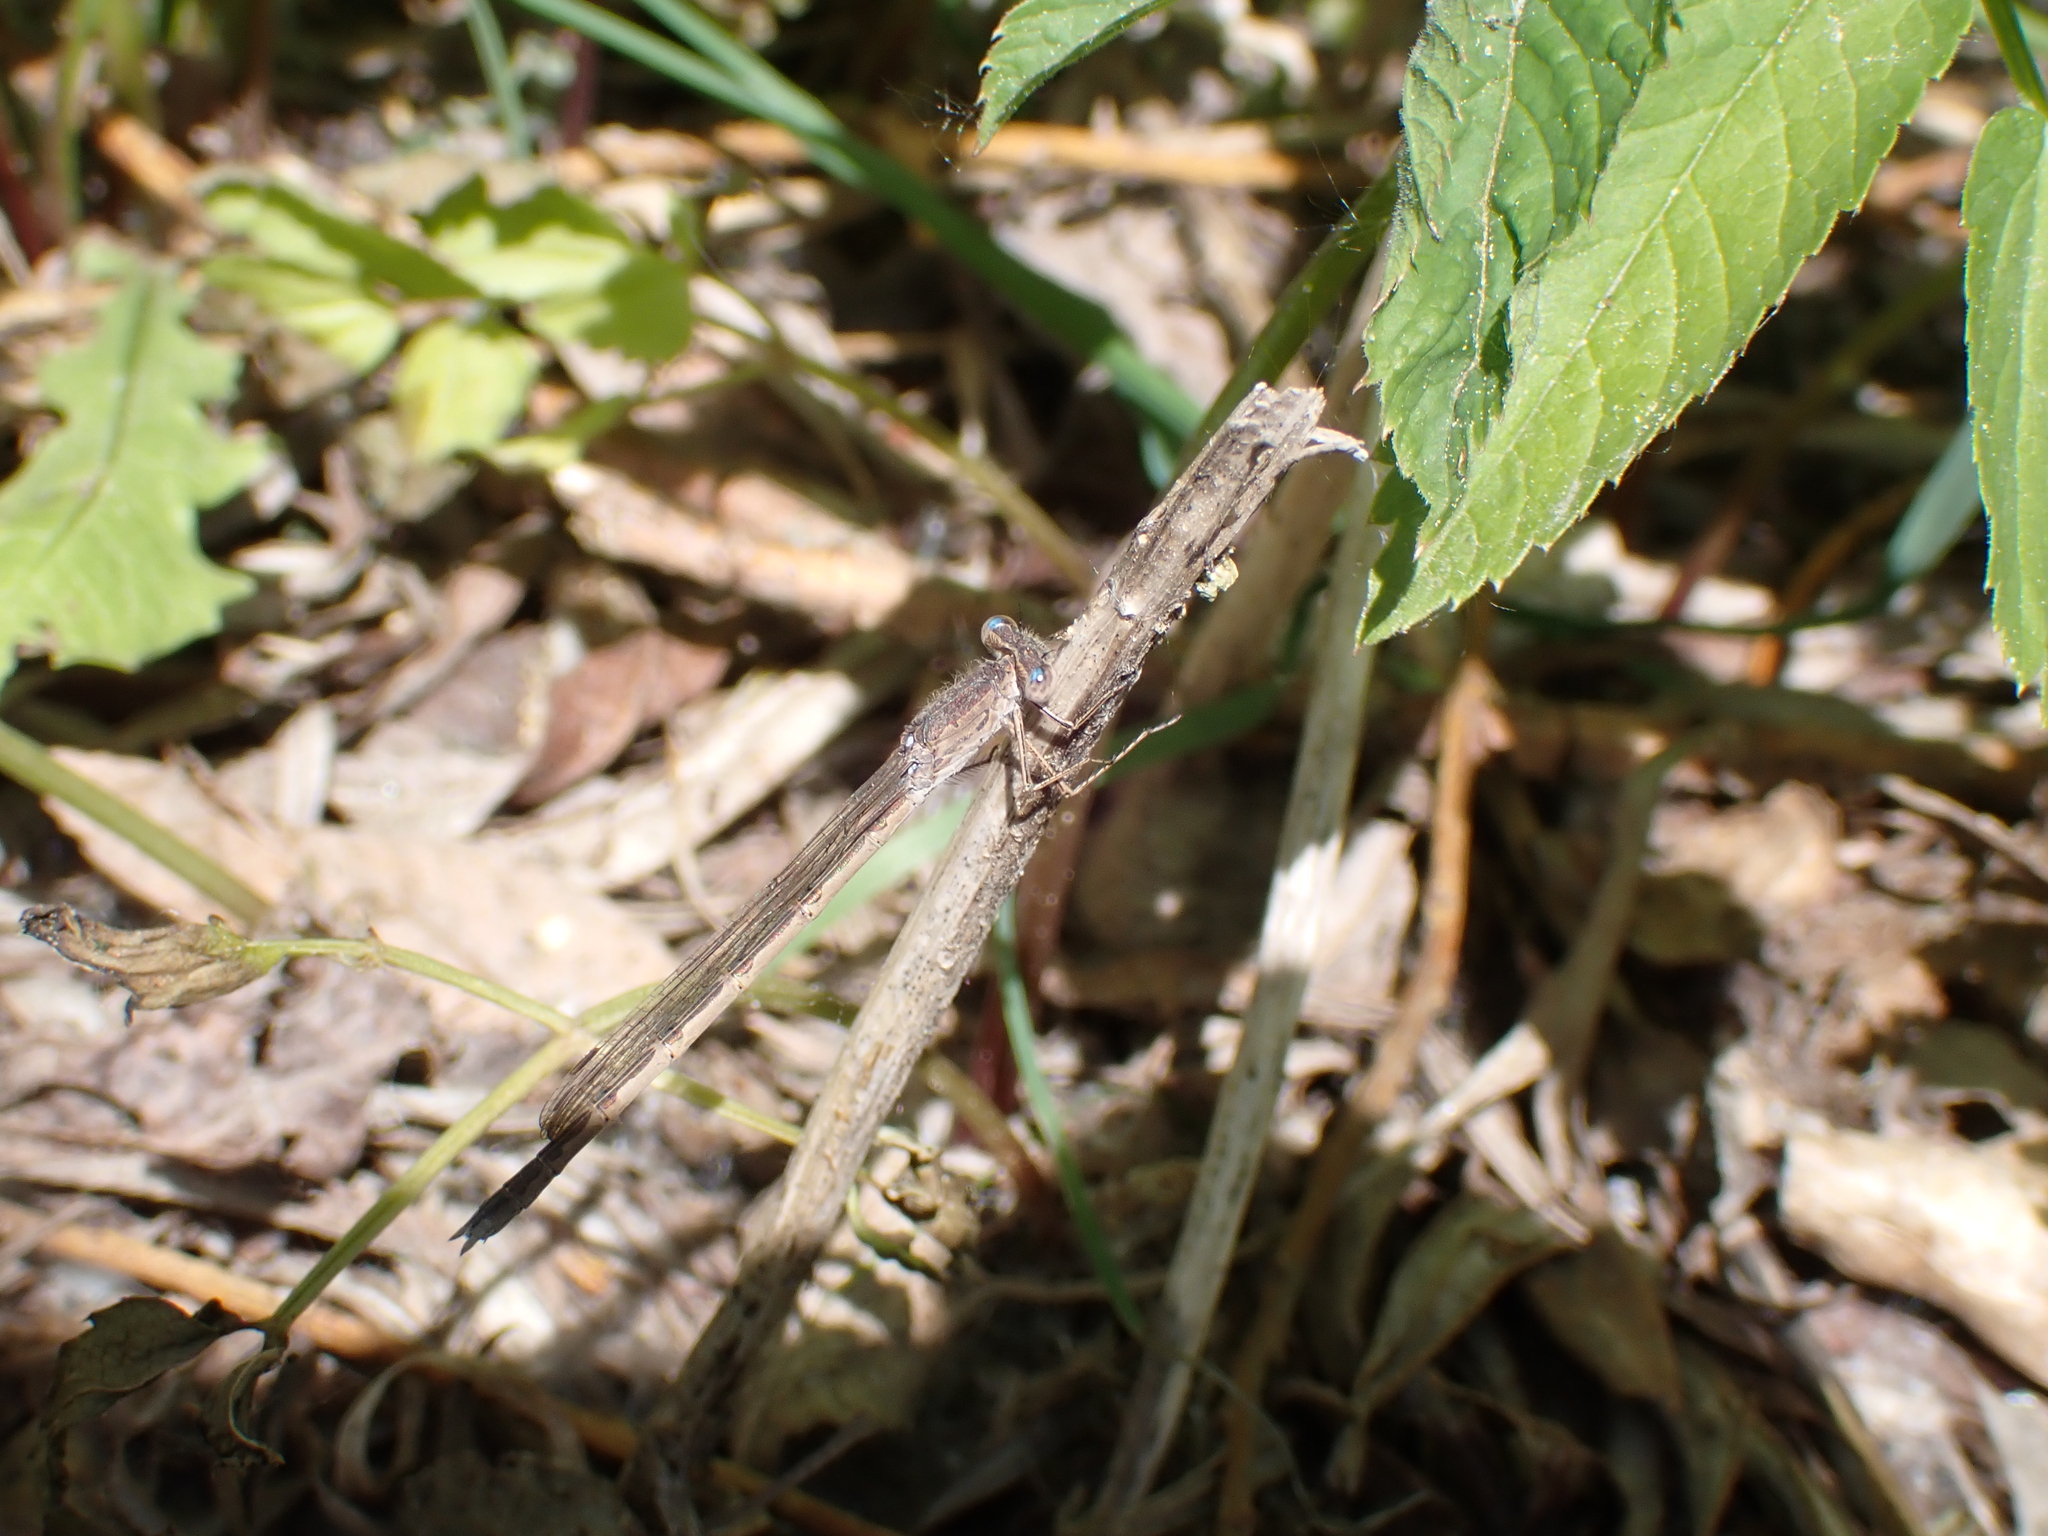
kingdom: Animalia
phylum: Arthropoda
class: Insecta
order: Odonata
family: Lestidae
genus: Sympecma
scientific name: Sympecma paedisca
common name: Siberian winter damsel
